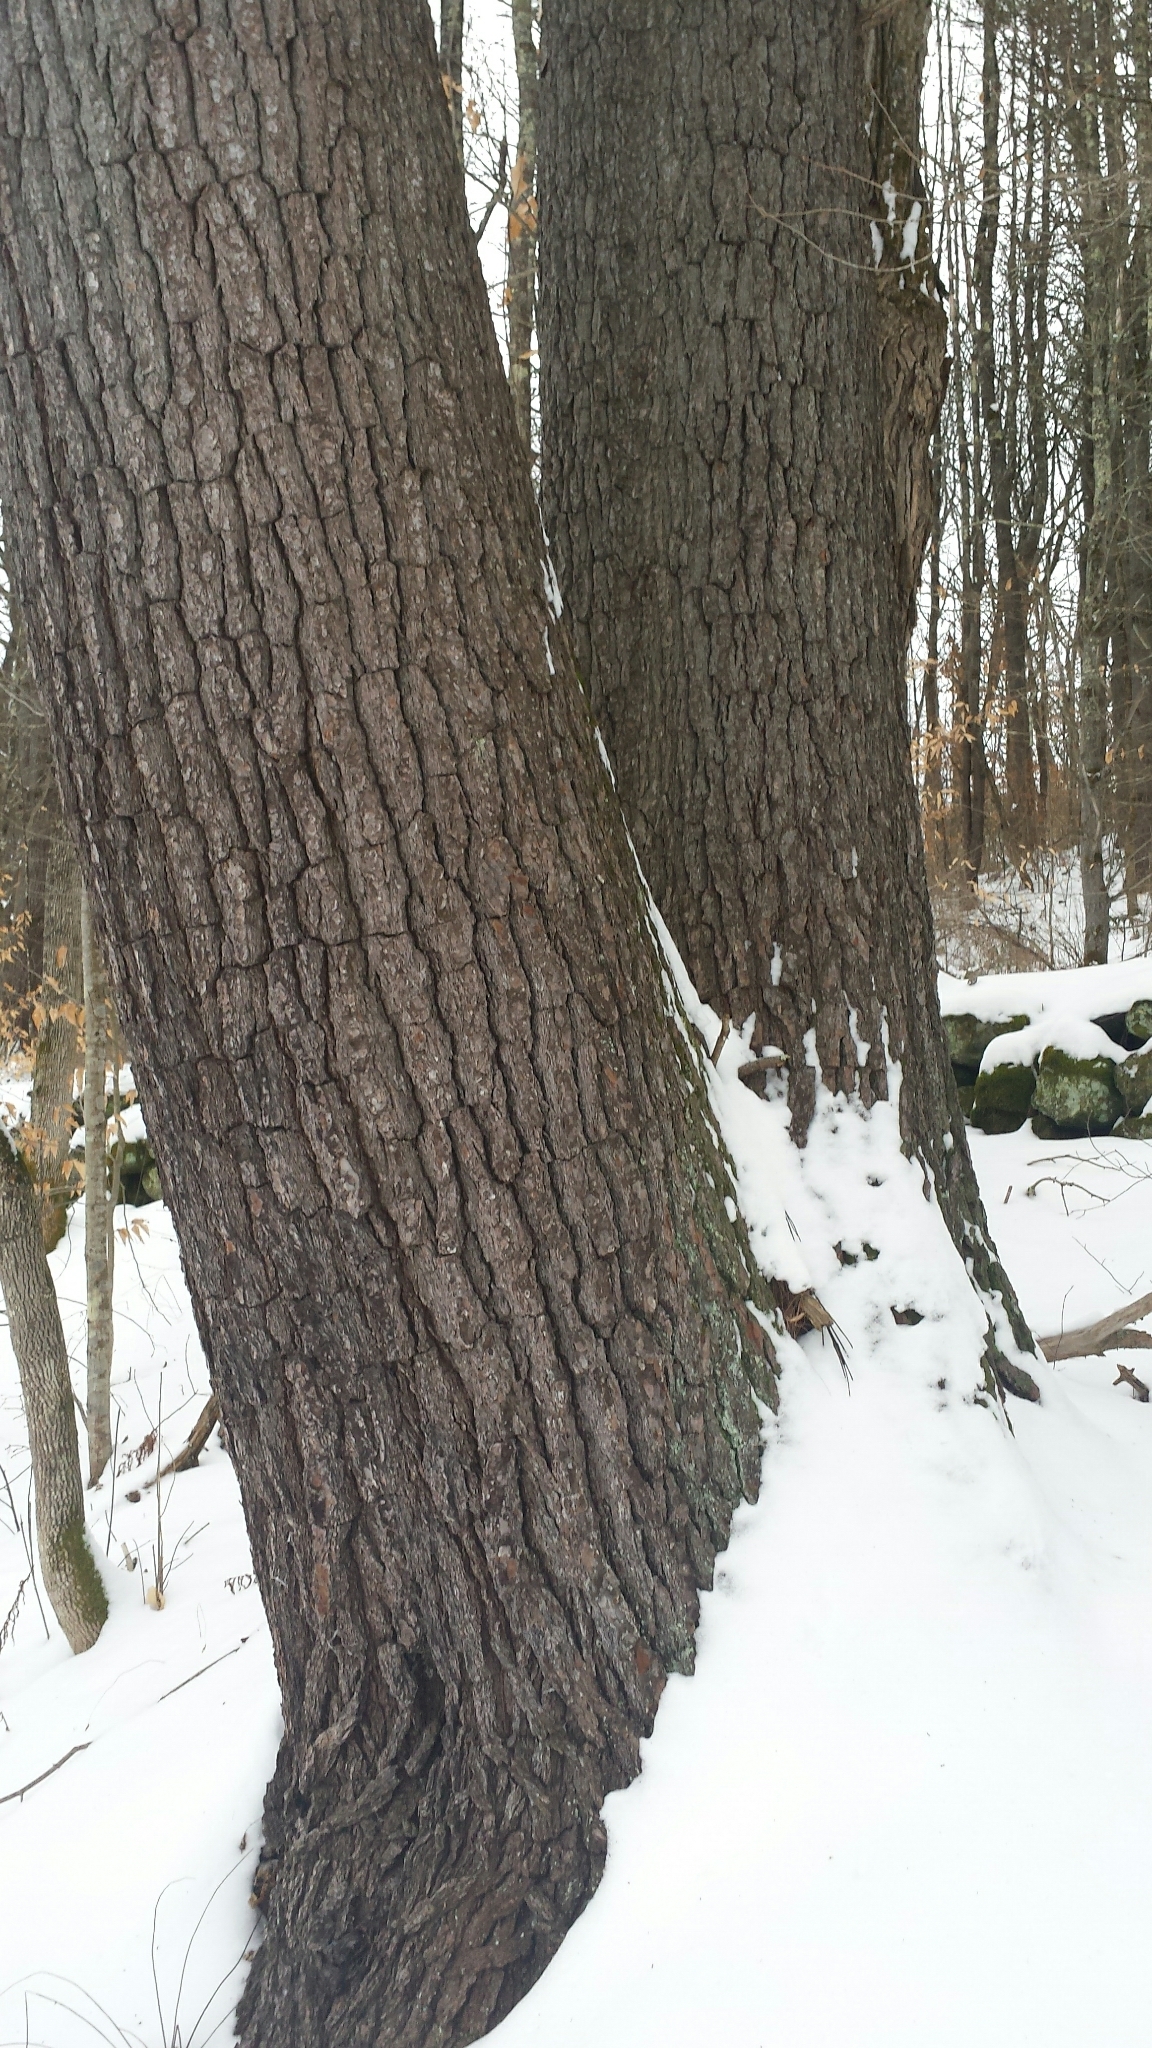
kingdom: Plantae
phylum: Tracheophyta
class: Pinopsida
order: Pinales
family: Pinaceae
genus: Pinus
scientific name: Pinus strobus
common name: Weymouth pine
